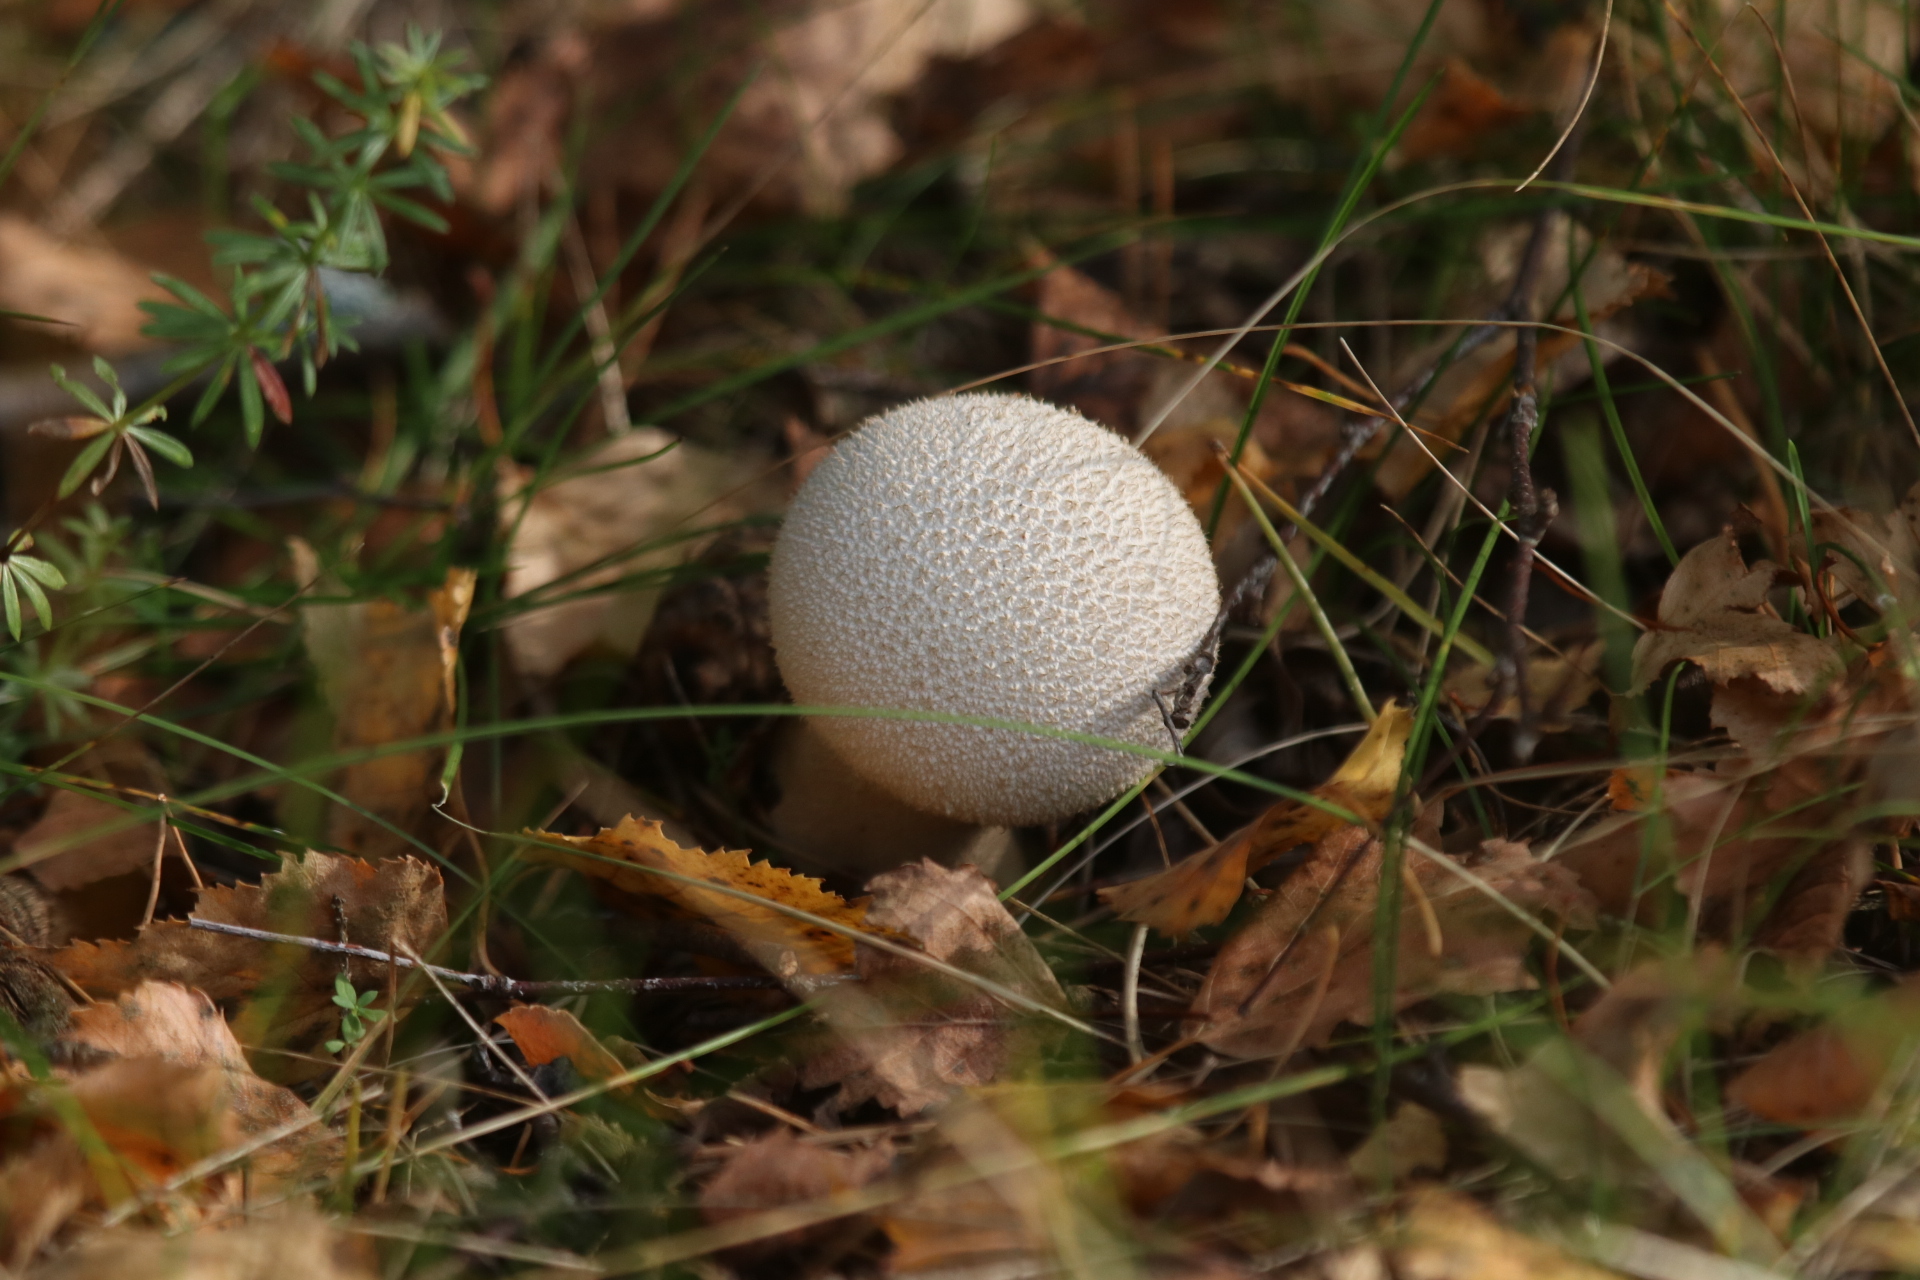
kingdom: Fungi
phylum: Basidiomycota
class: Agaricomycetes
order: Agaricales
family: Lycoperdaceae
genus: Lycoperdon
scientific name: Lycoperdon perlatum
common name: Common puffball
